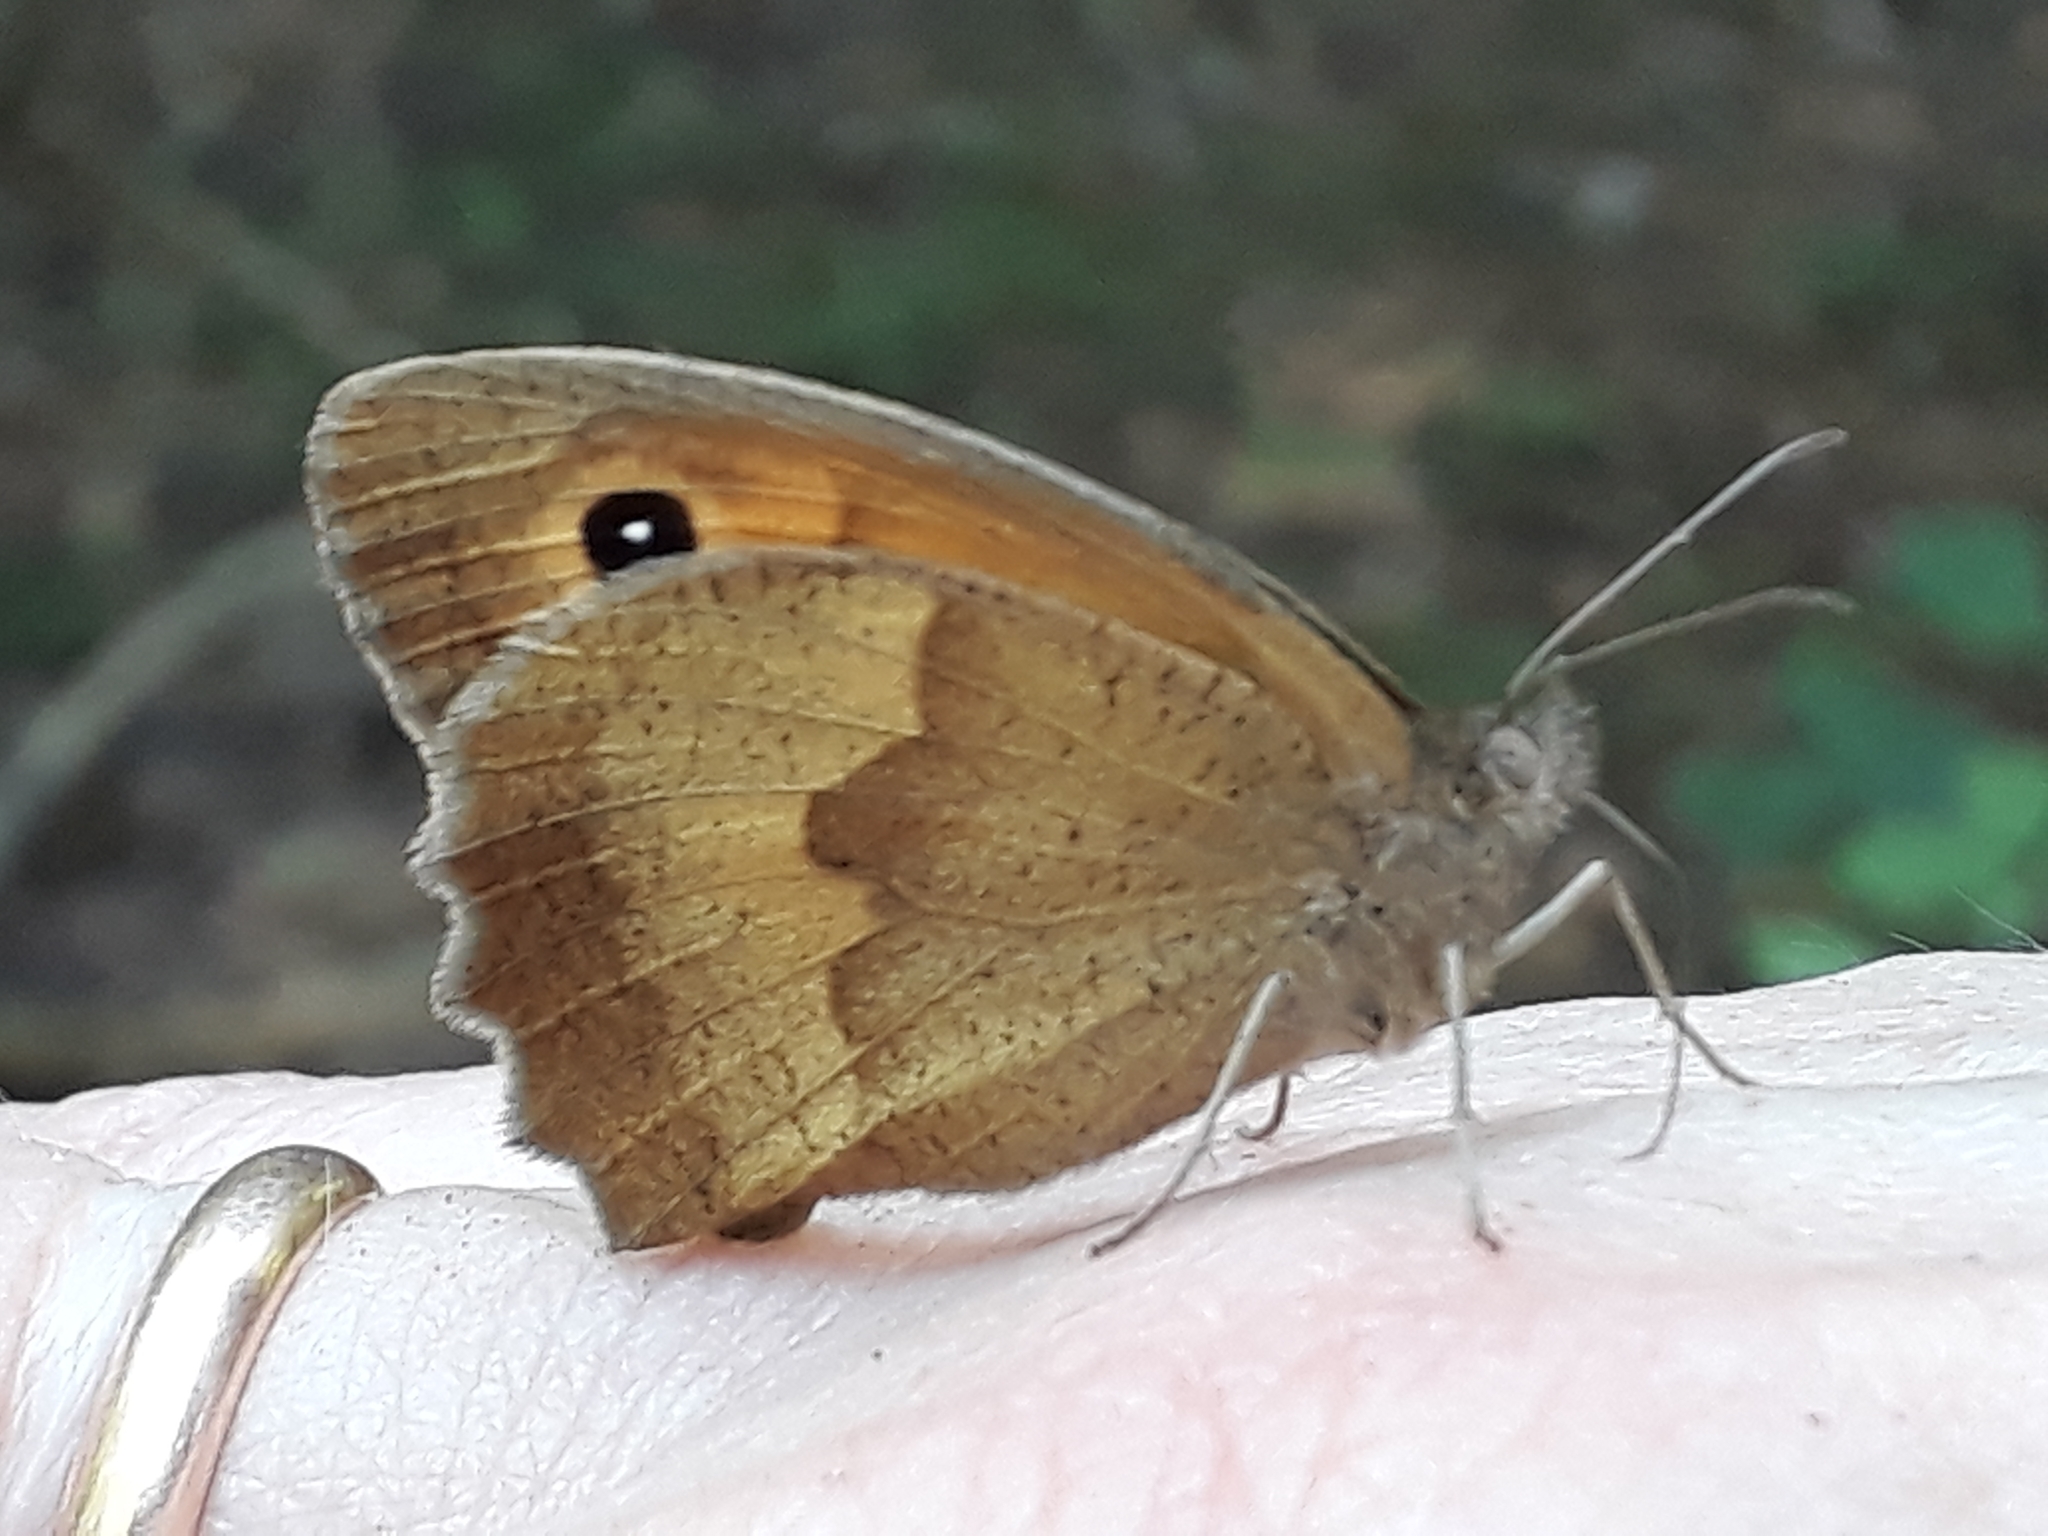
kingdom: Animalia
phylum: Arthropoda
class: Insecta
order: Lepidoptera
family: Nymphalidae
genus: Maniola
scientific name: Maniola jurtina
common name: Meadow brown
